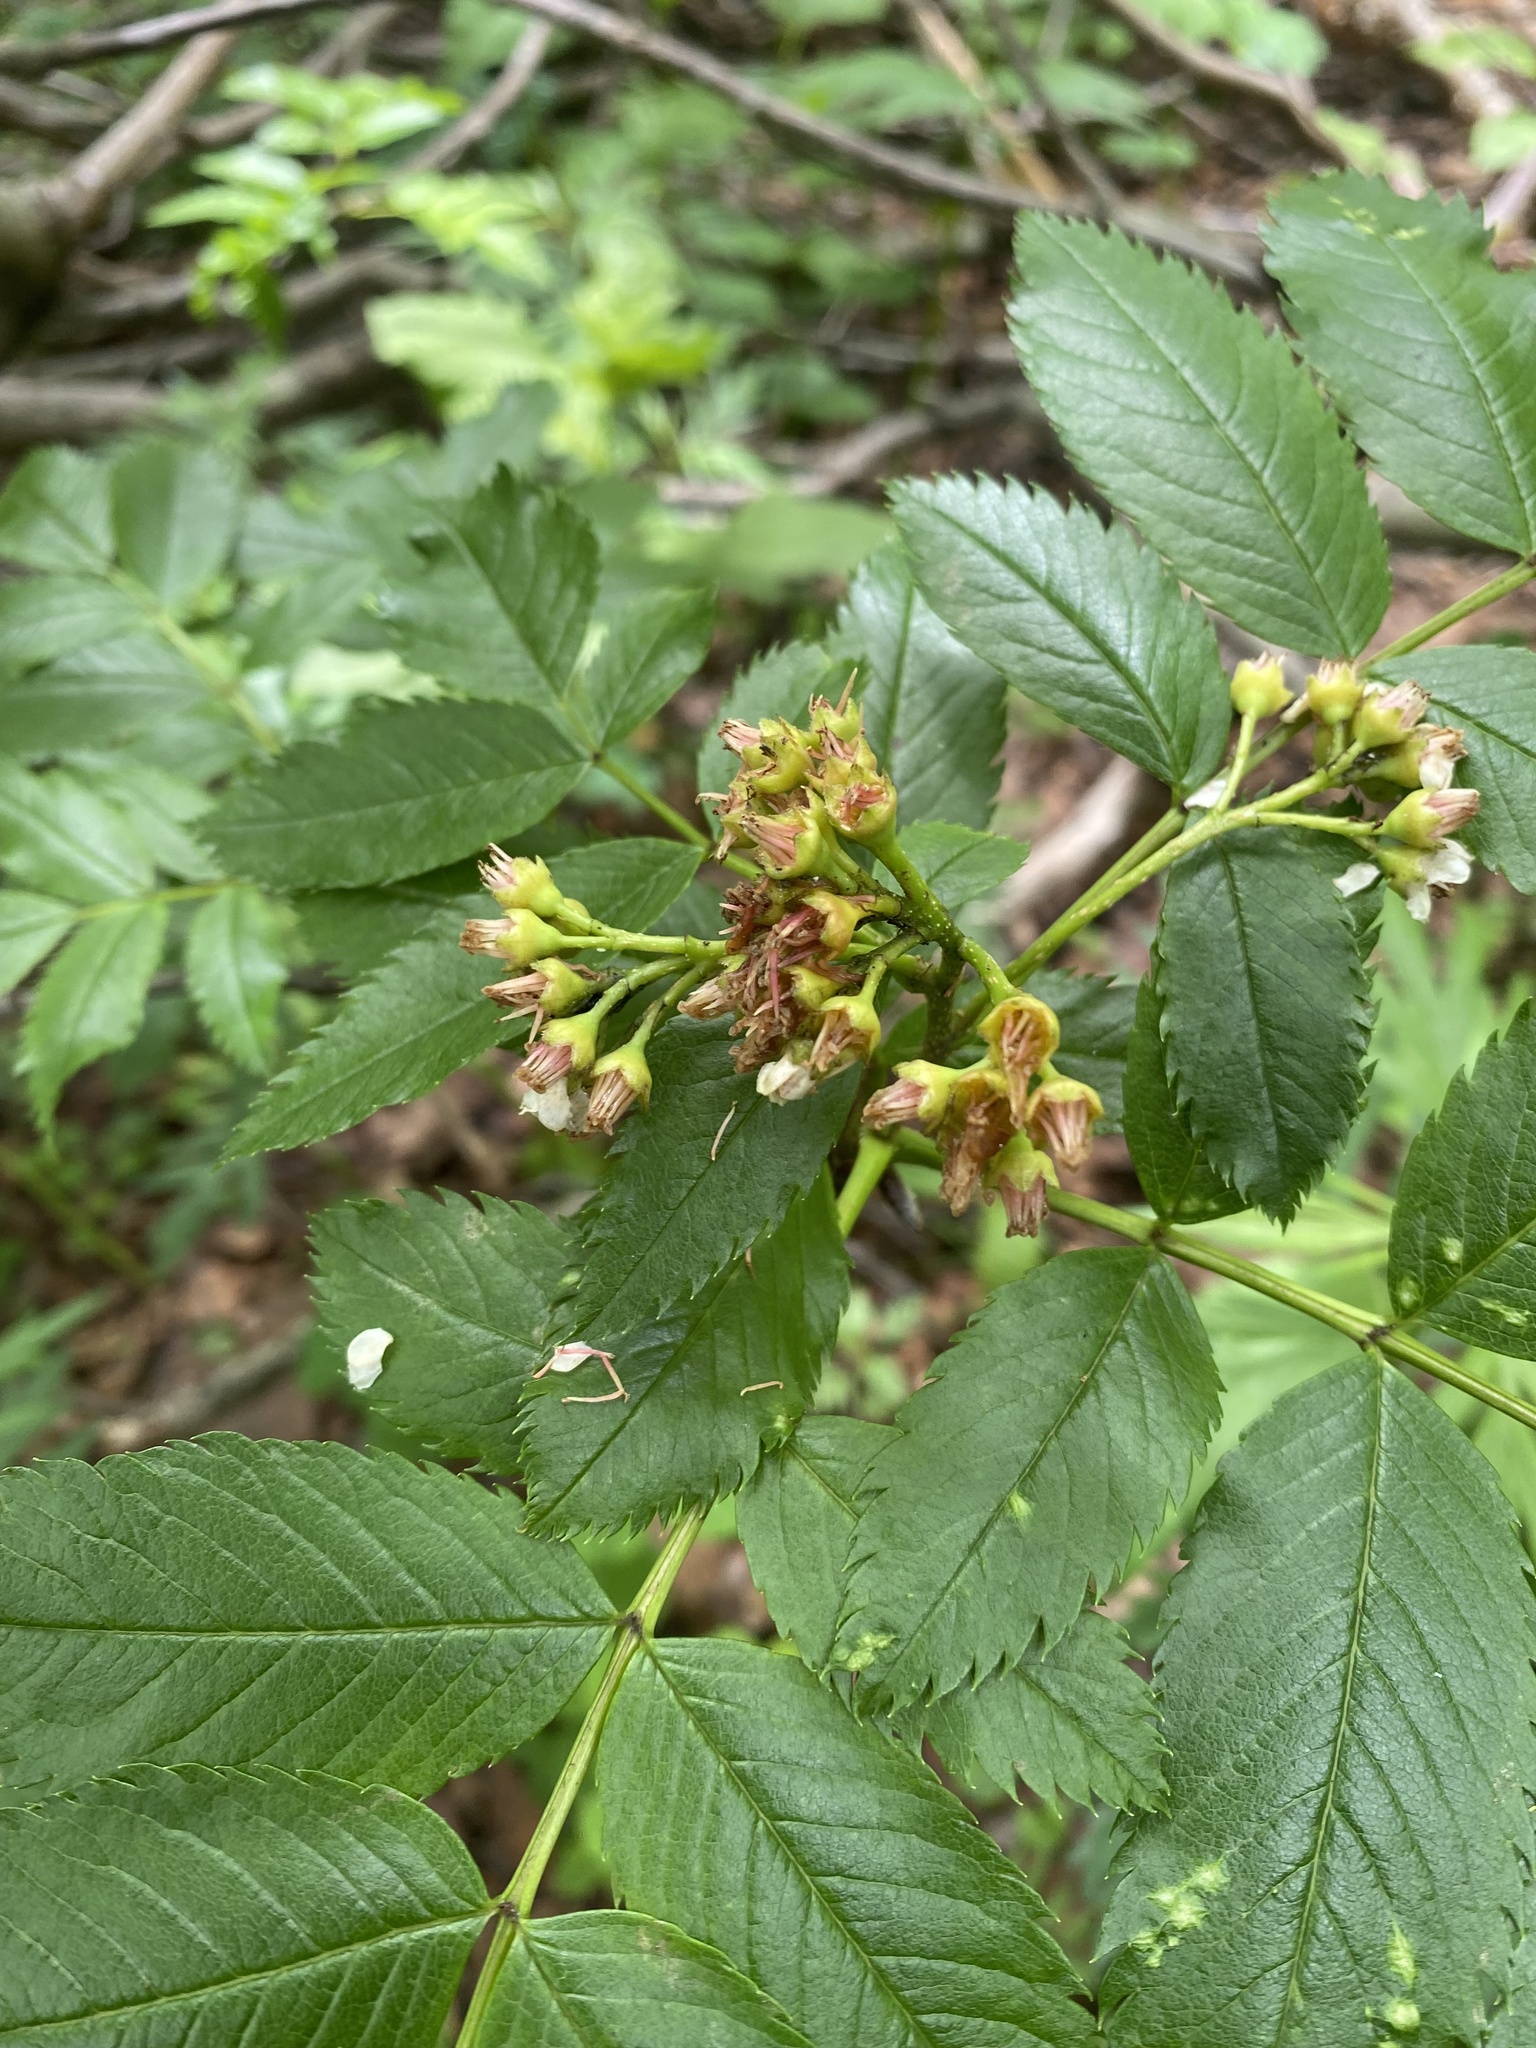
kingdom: Plantae
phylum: Tracheophyta
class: Magnoliopsida
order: Rosales
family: Rosaceae
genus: Sorbus
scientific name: Sorbus sambucifolia
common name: Siberian mountain-ash
